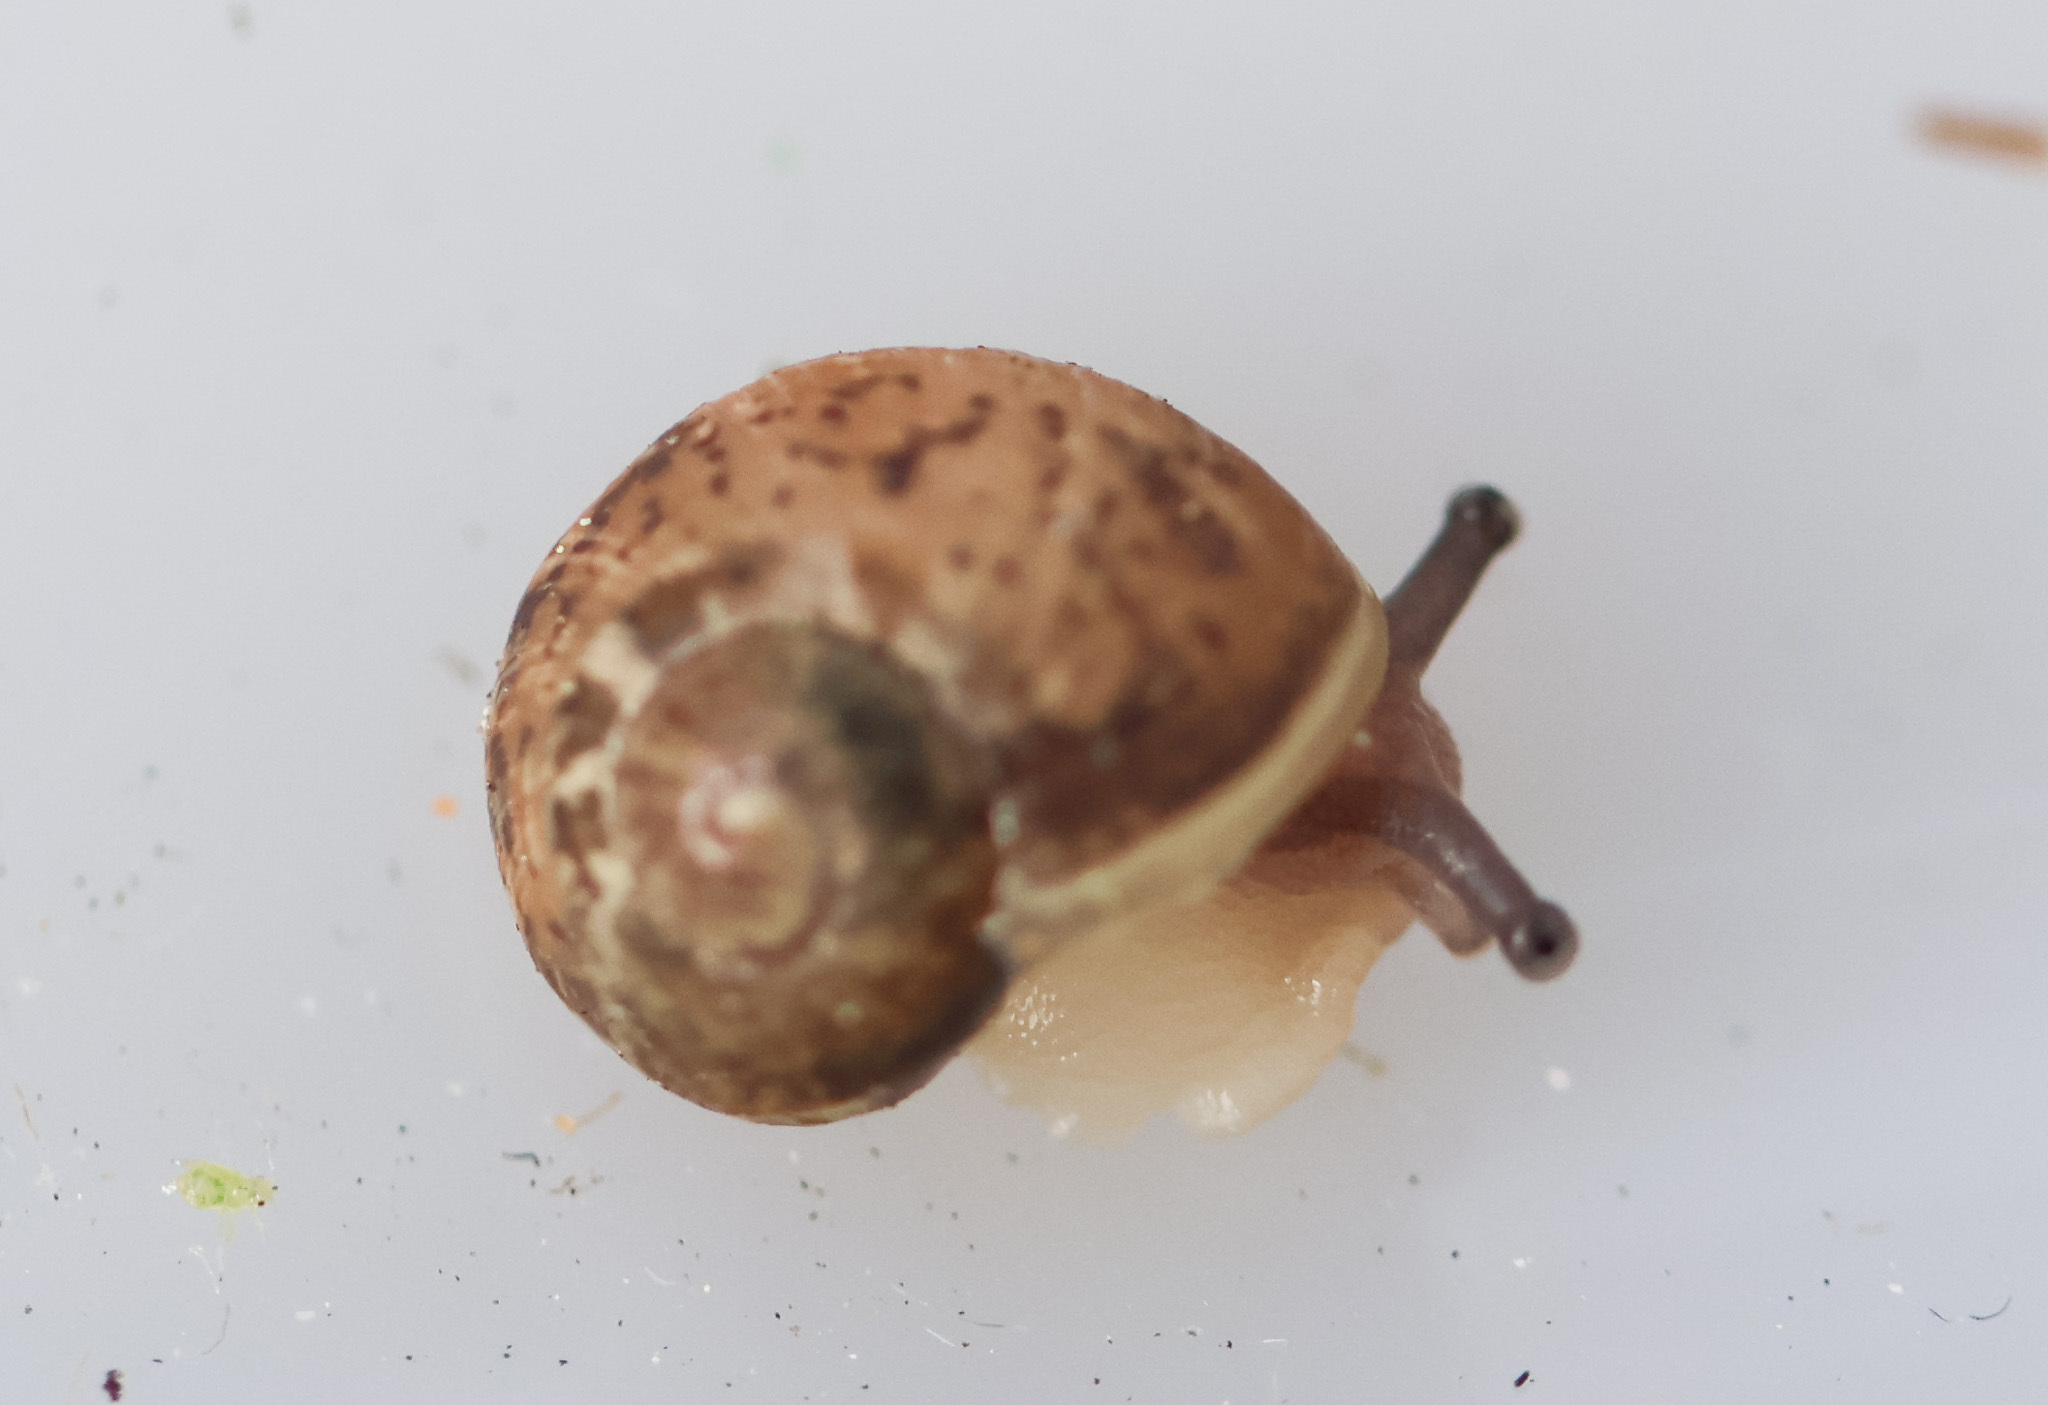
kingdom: Animalia
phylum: Mollusca
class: Gastropoda
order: Stylommatophora
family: Helicidae
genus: Cornu
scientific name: Cornu aspersum
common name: Brown garden snail
